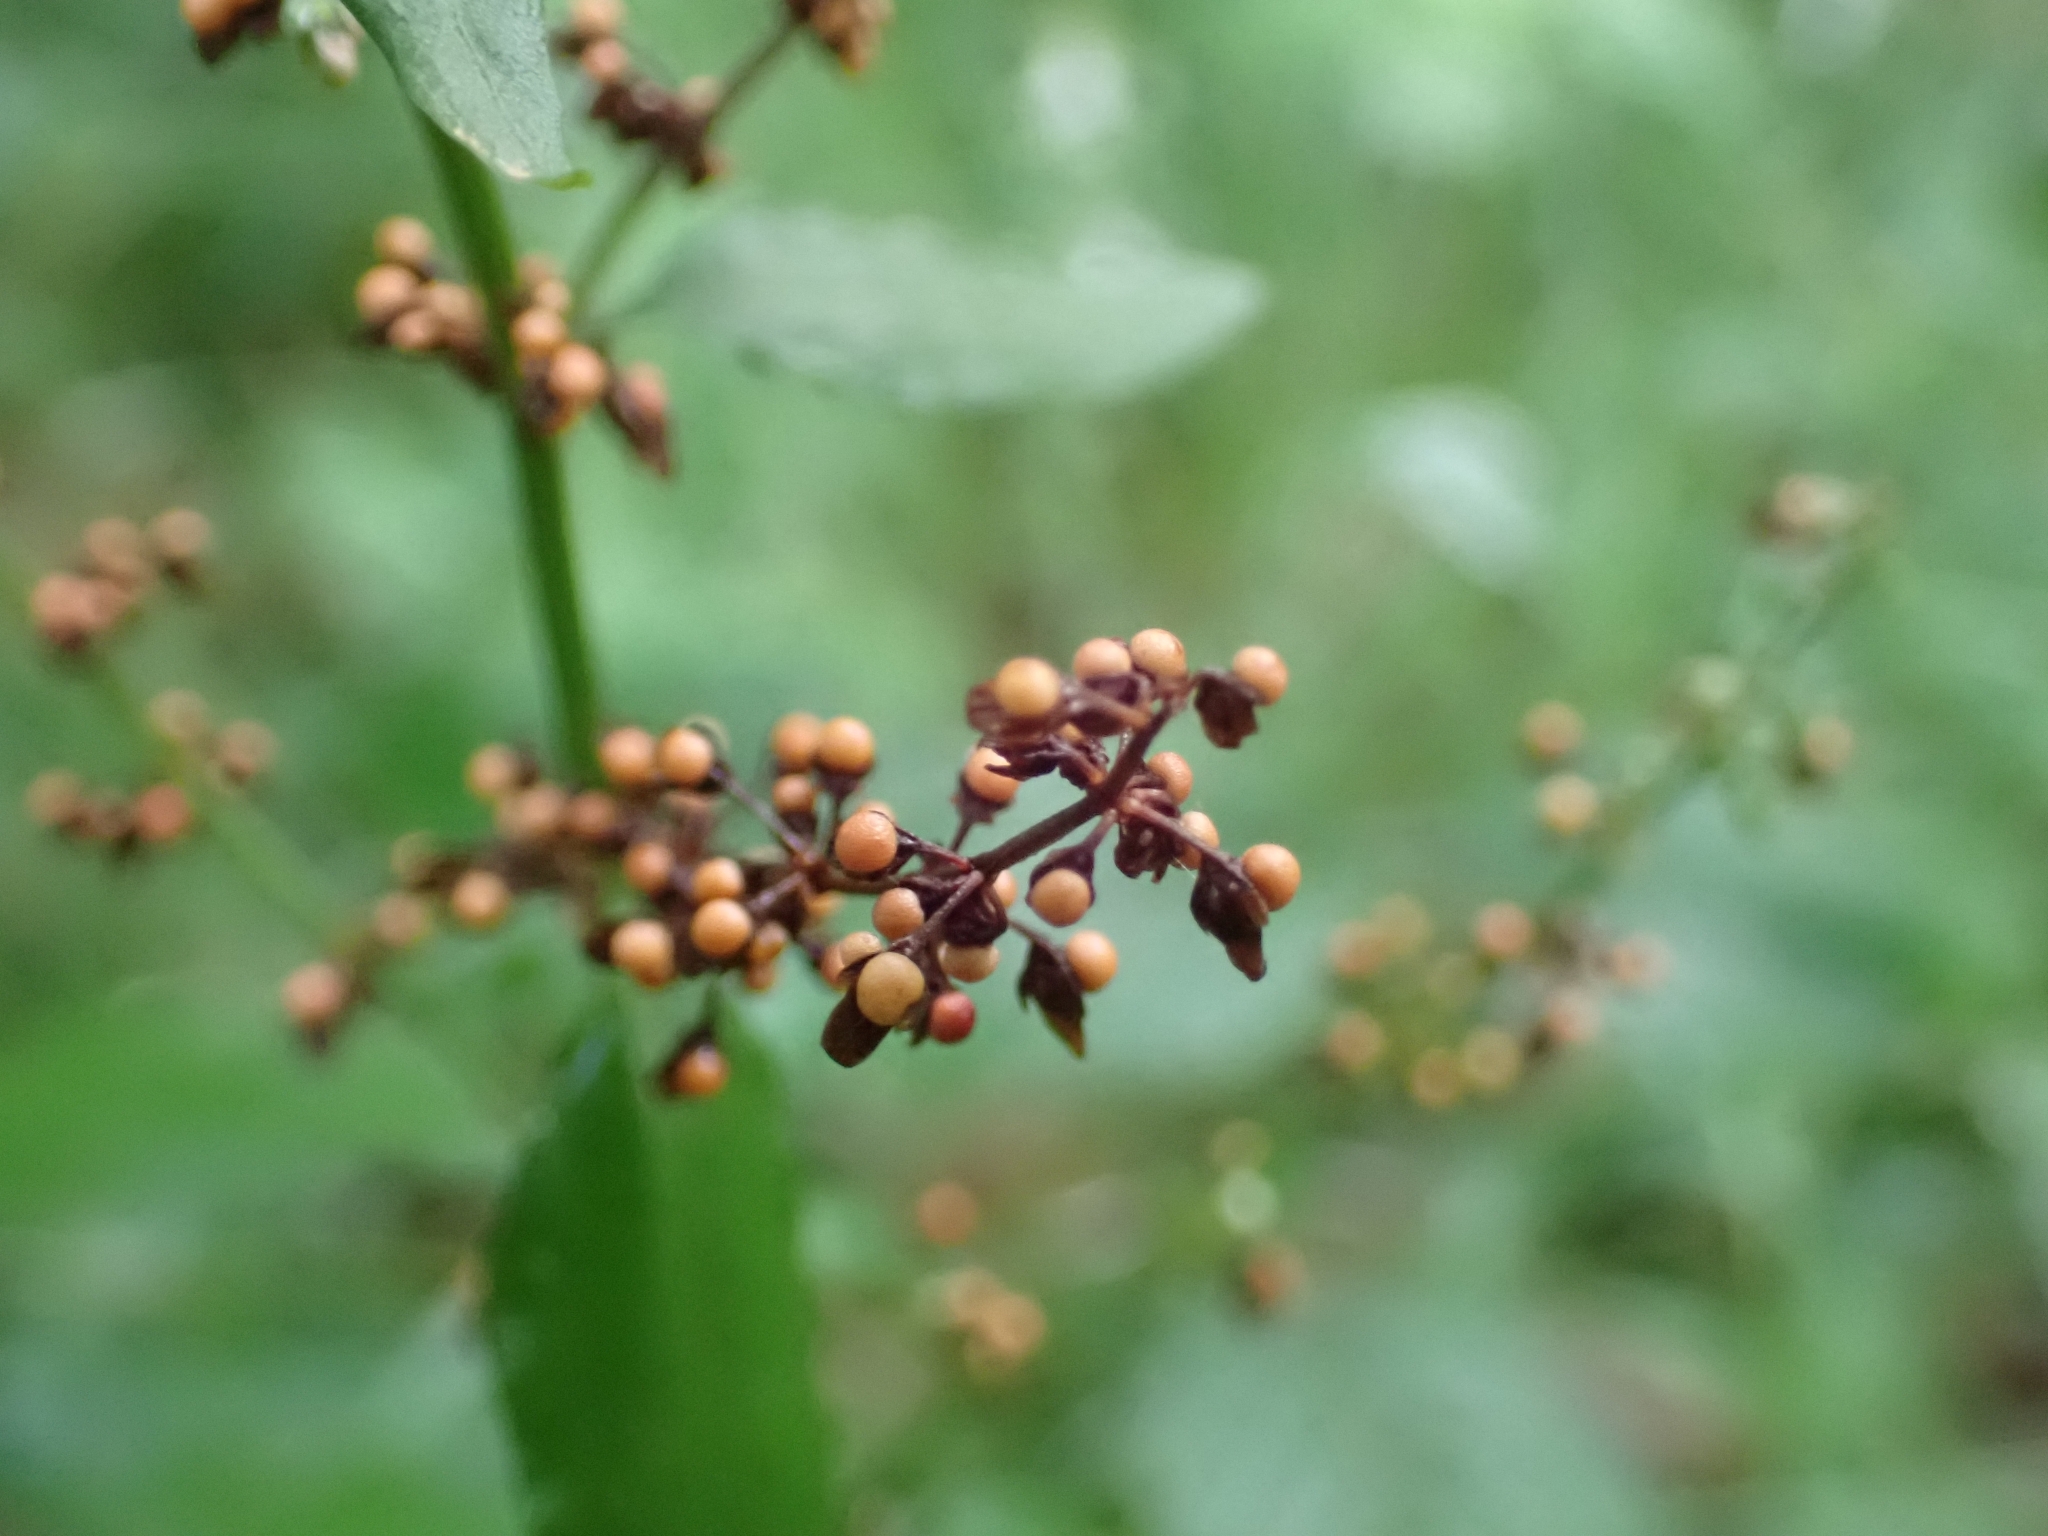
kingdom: Plantae
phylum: Tracheophyta
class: Magnoliopsida
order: Caryophyllales
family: Polygonaceae
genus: Rumex
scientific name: Rumex sanguineus
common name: Wood dock
